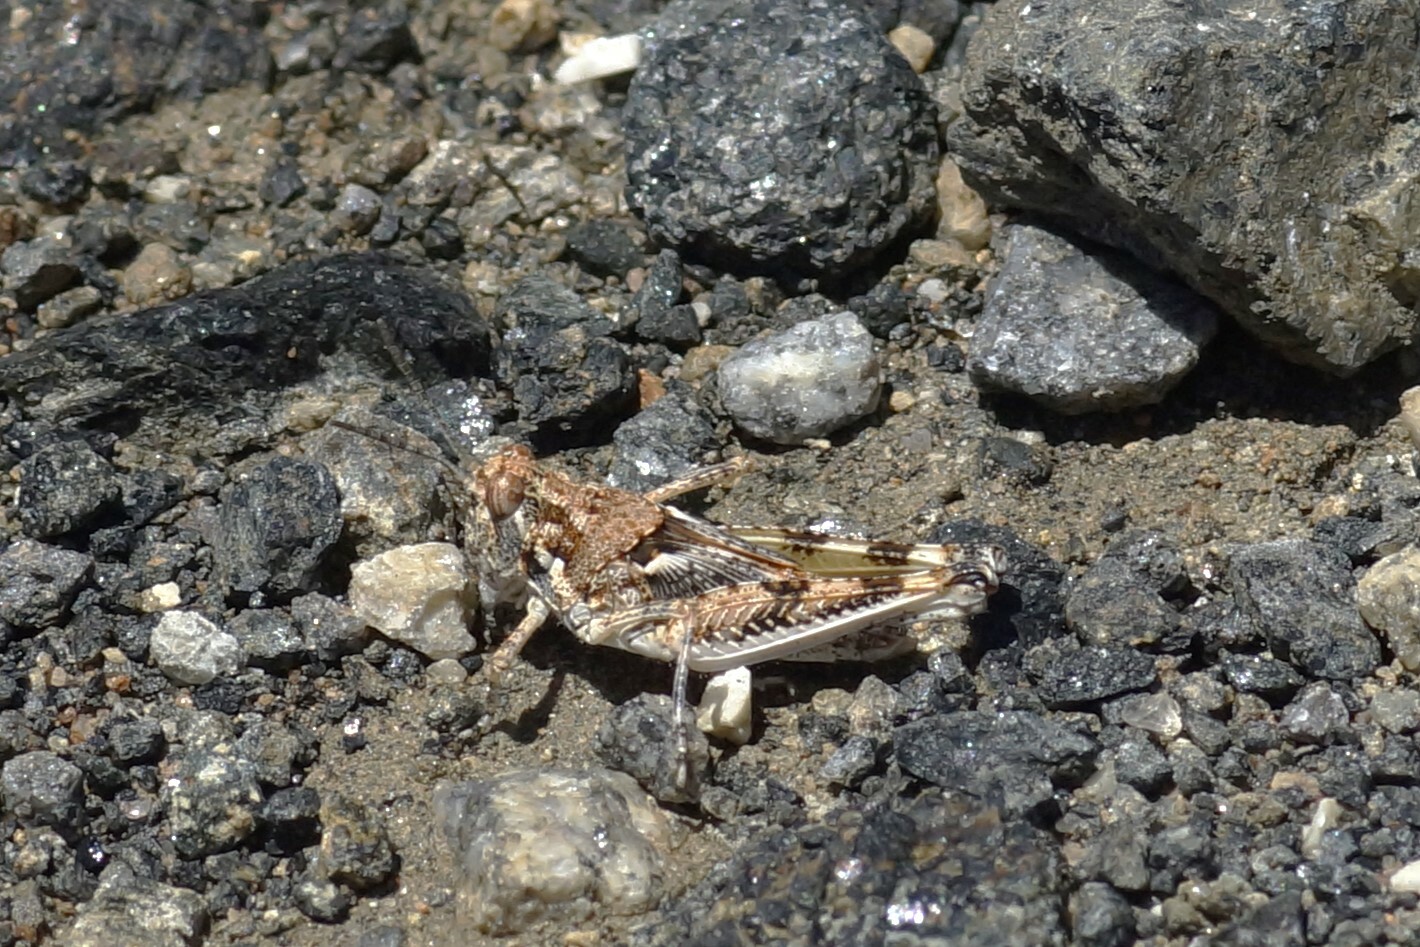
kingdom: Animalia
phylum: Arthropoda
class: Insecta
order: Orthoptera
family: Acrididae
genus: Urnisa
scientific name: Urnisa guttulosa
